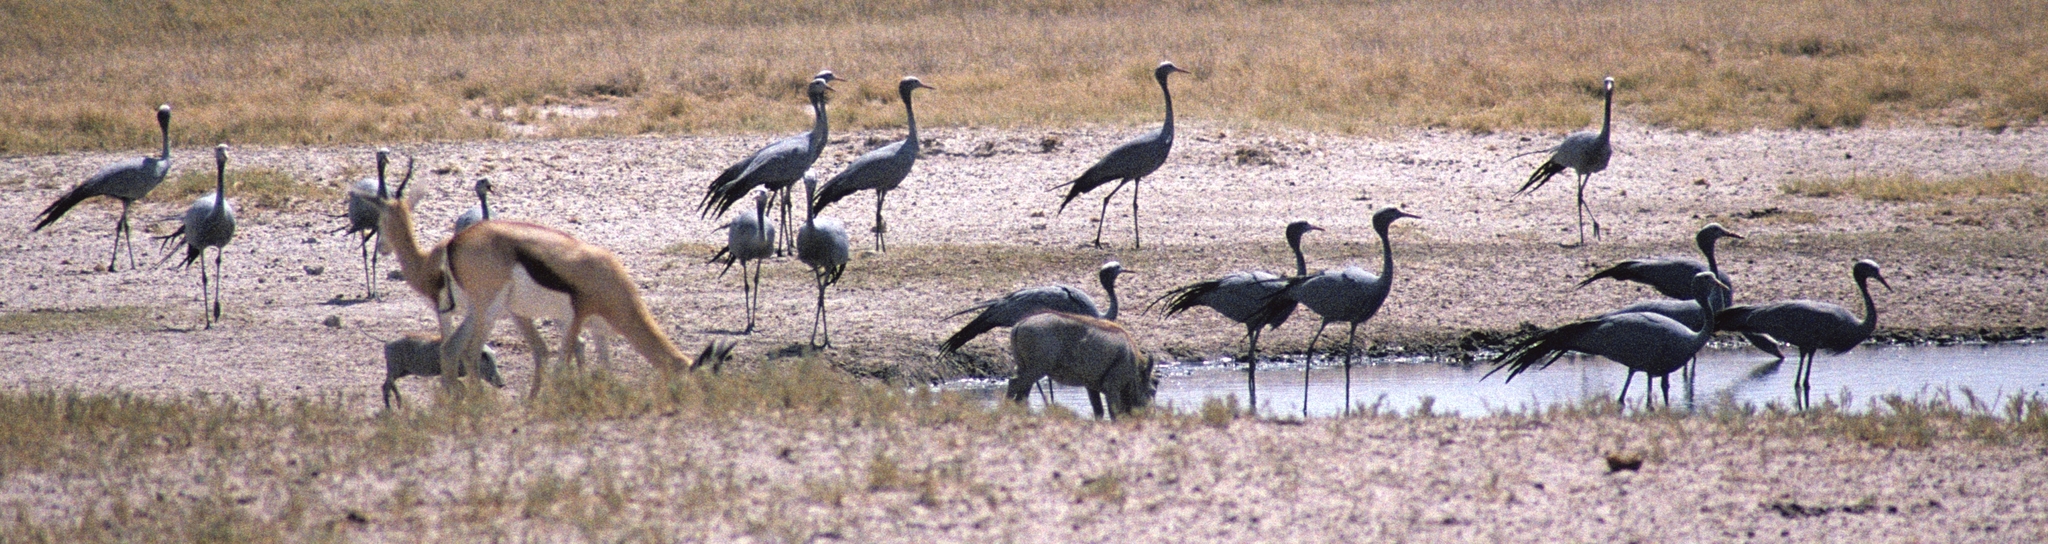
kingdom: Animalia
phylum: Chordata
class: Aves
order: Gruiformes
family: Gruidae
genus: Anthropoides
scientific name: Anthropoides paradiseus
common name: Blue crane
